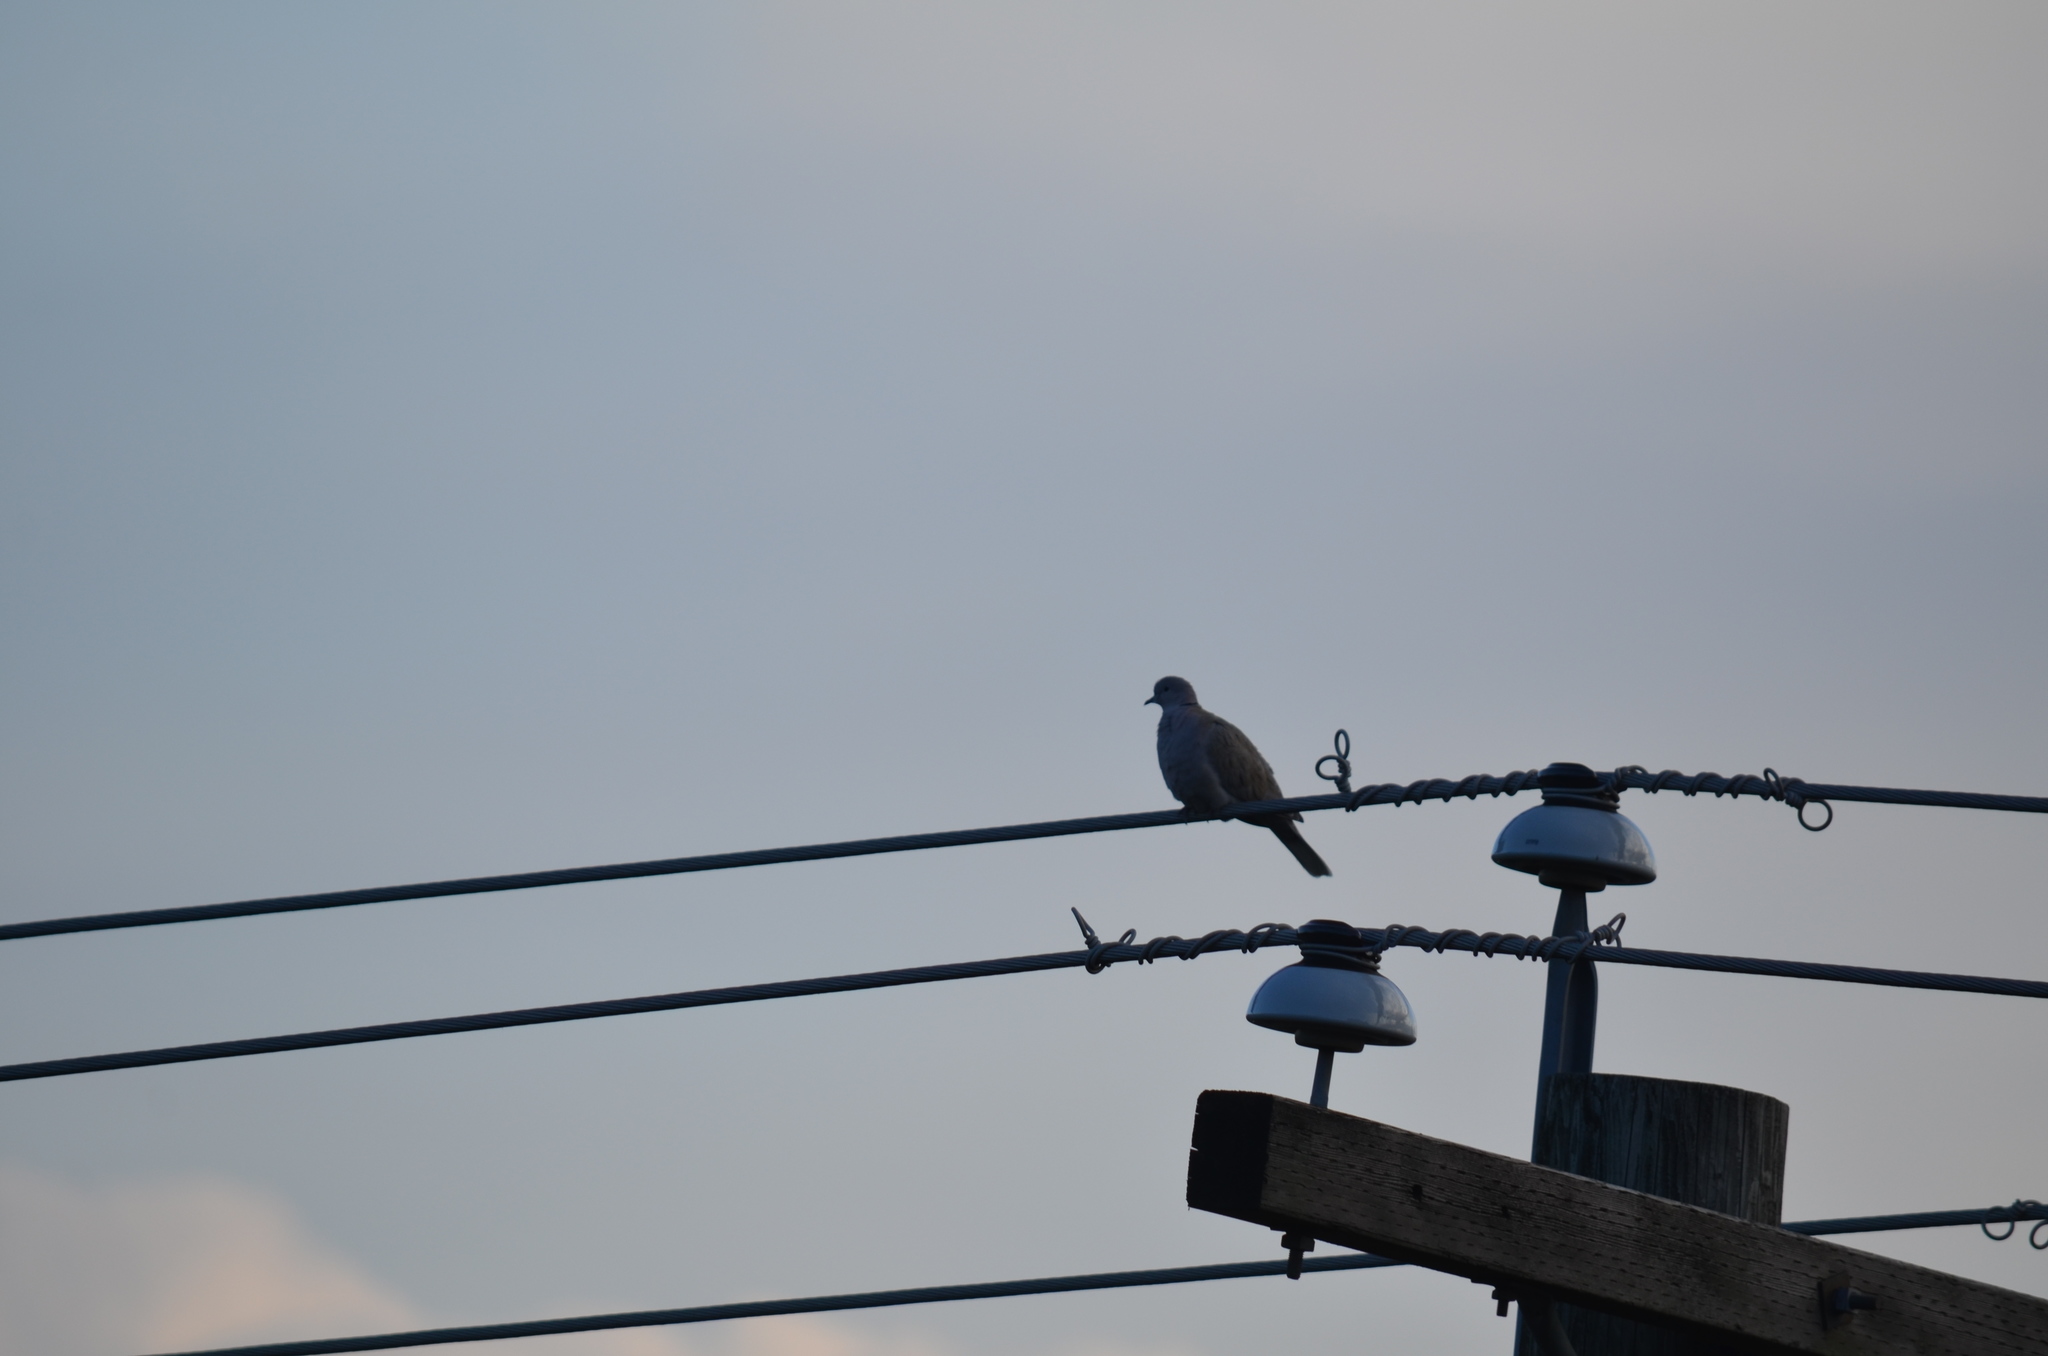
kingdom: Animalia
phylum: Chordata
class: Aves
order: Columbiformes
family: Columbidae
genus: Streptopelia
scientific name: Streptopelia decaocto
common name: Eurasian collared dove
